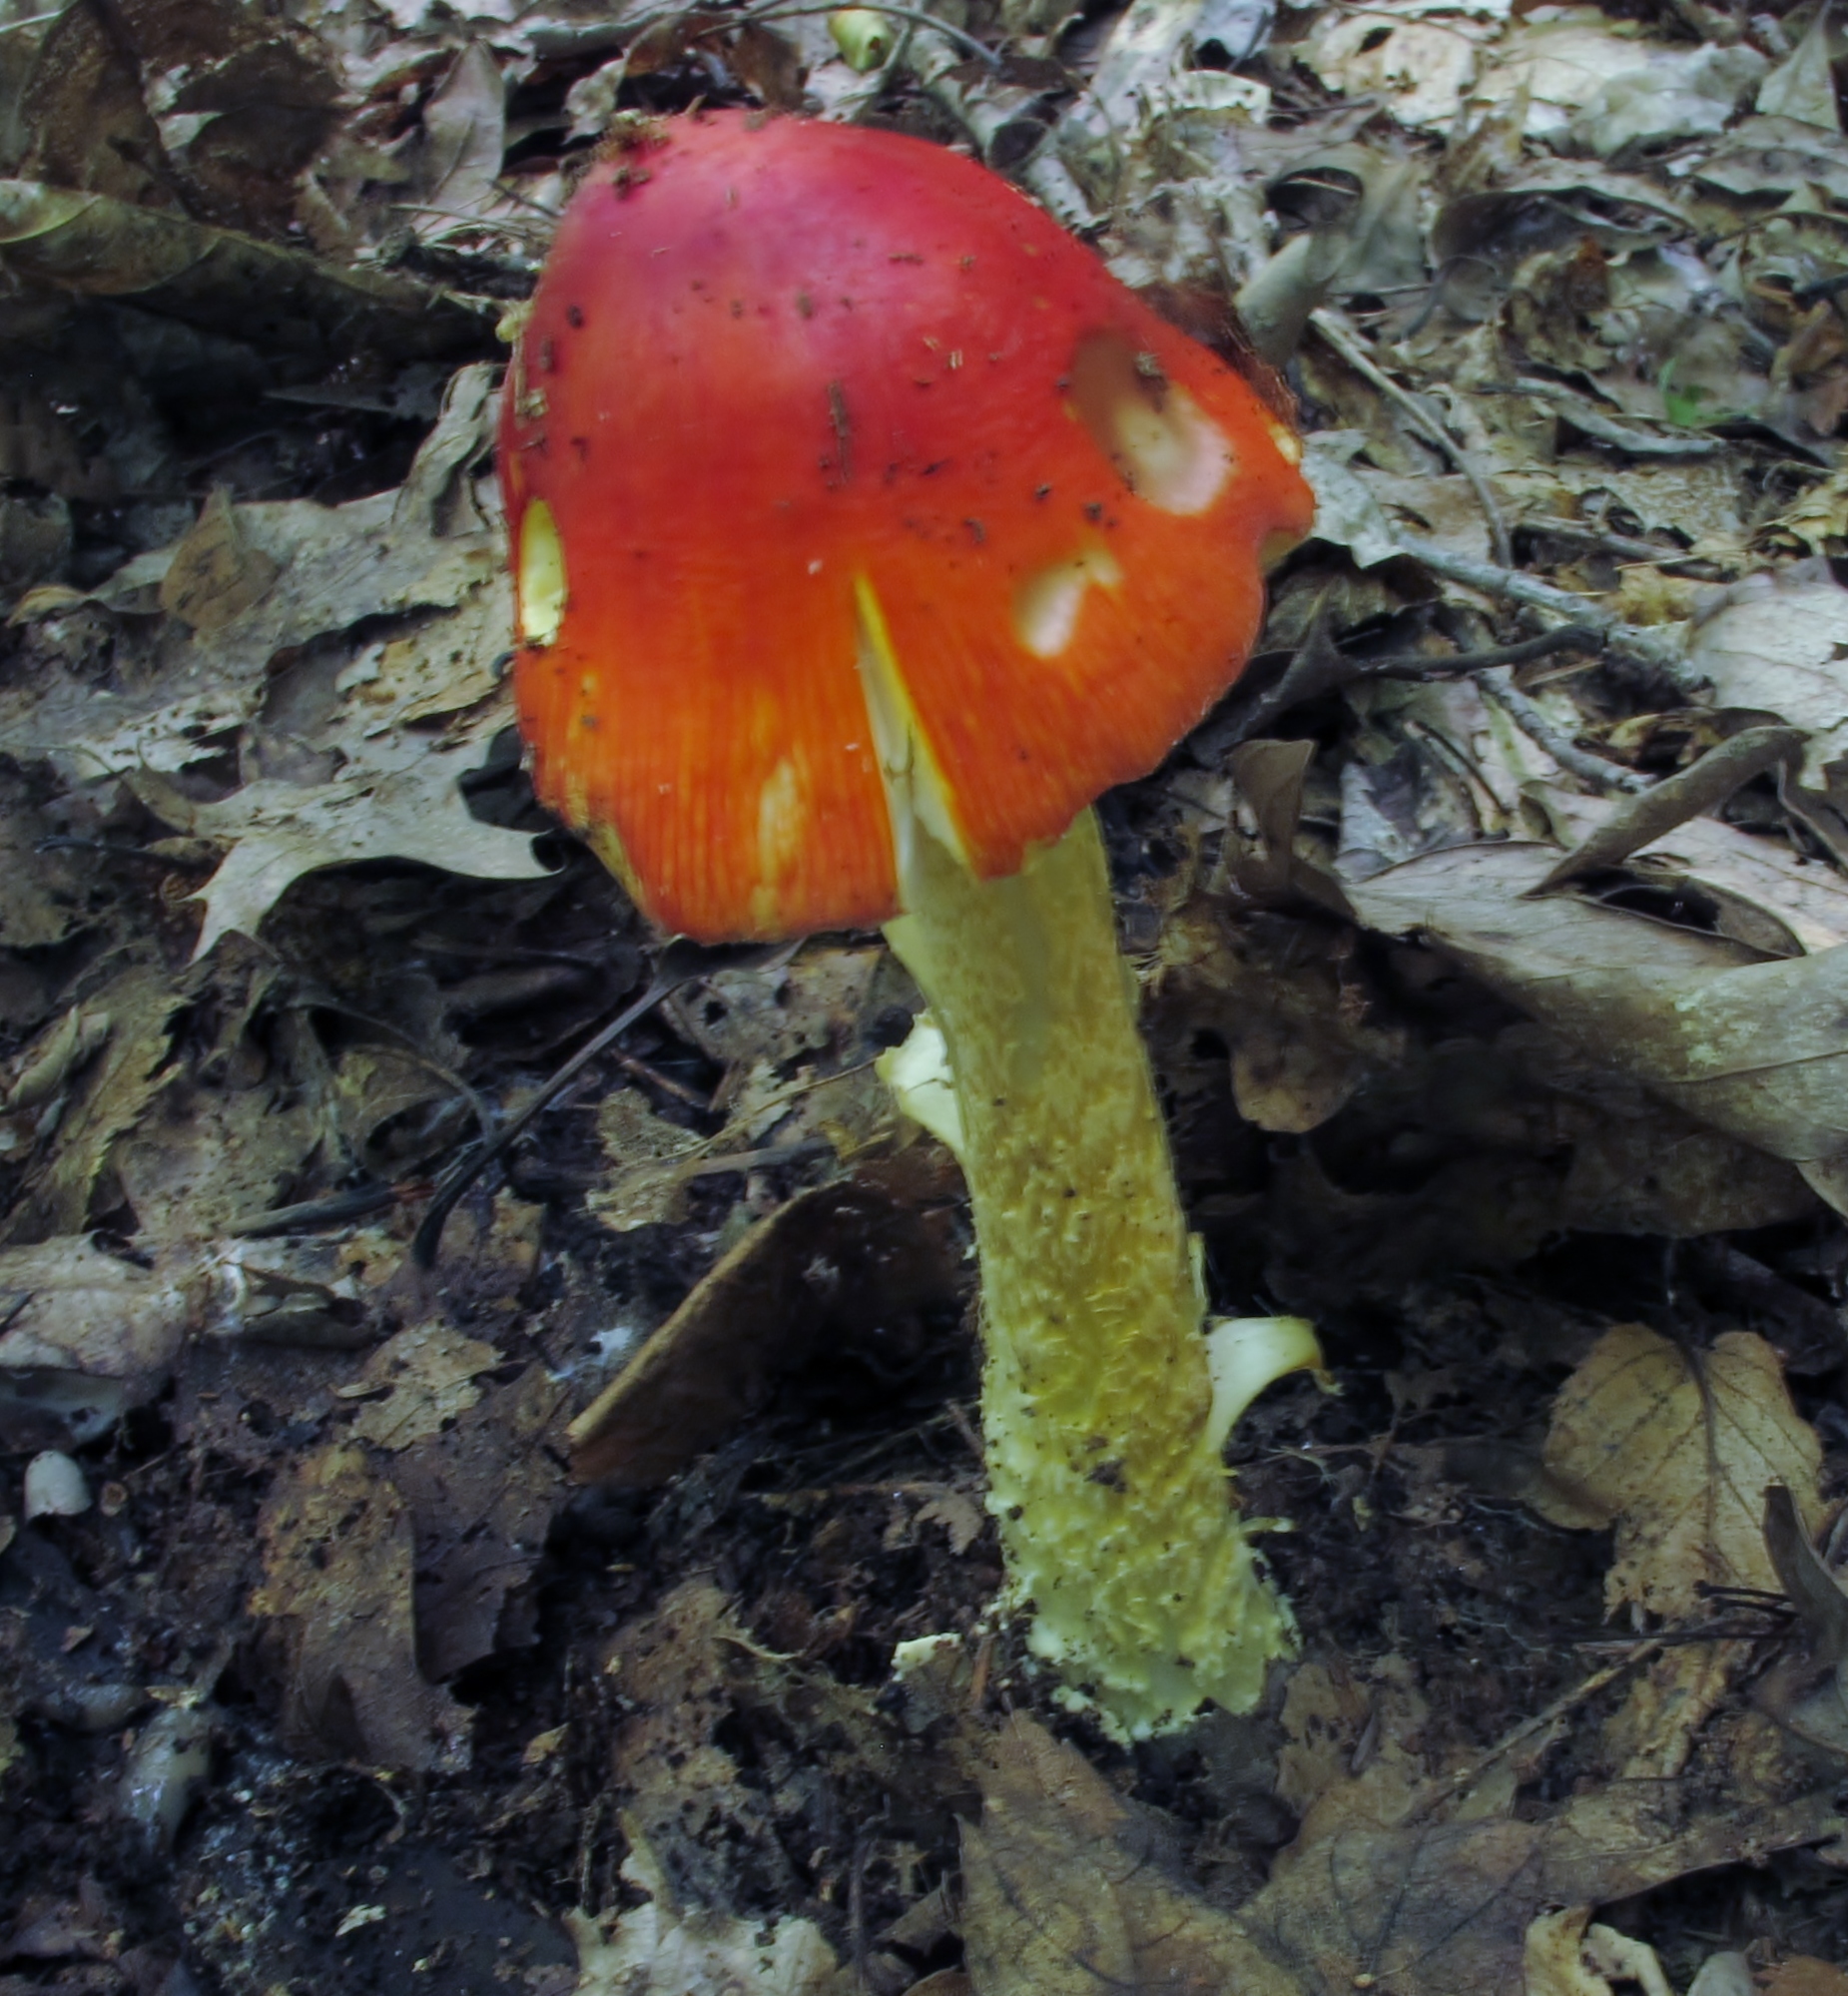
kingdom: Fungi
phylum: Basidiomycota
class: Agaricomycetes
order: Agaricales
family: Amanitaceae
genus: Amanita
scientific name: Amanita parcivolvata
